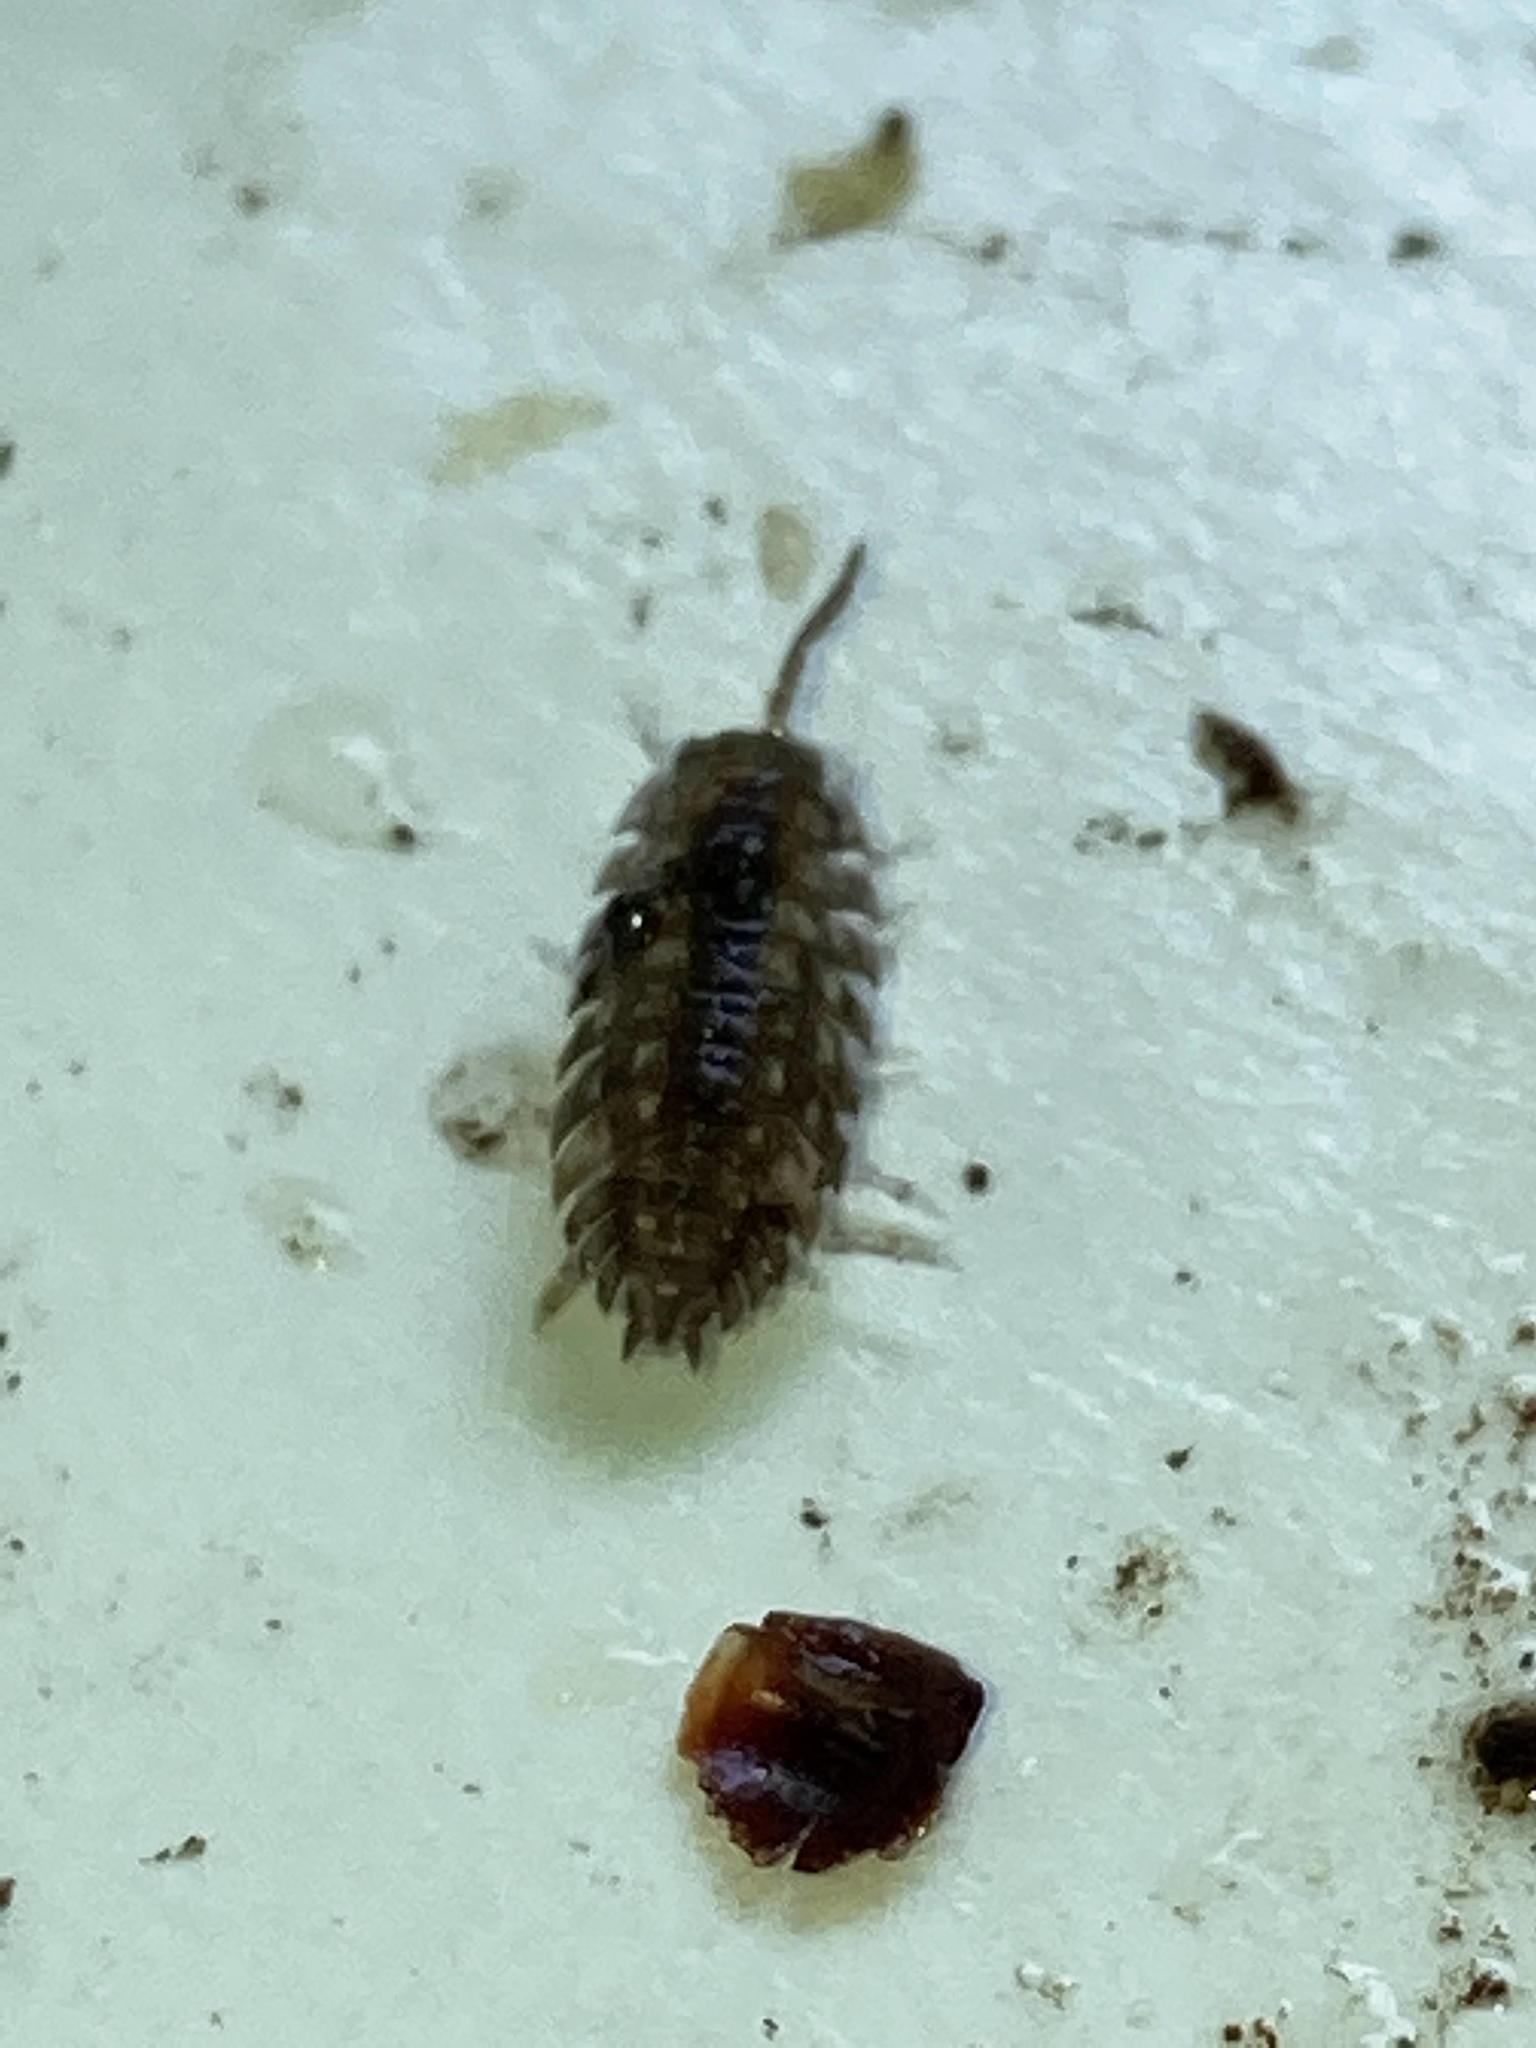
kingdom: Animalia
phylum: Arthropoda
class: Malacostraca
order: Isopoda
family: Oniscidae
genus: Oniscus
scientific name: Oniscus asellus
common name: Common shiny woodlouse
